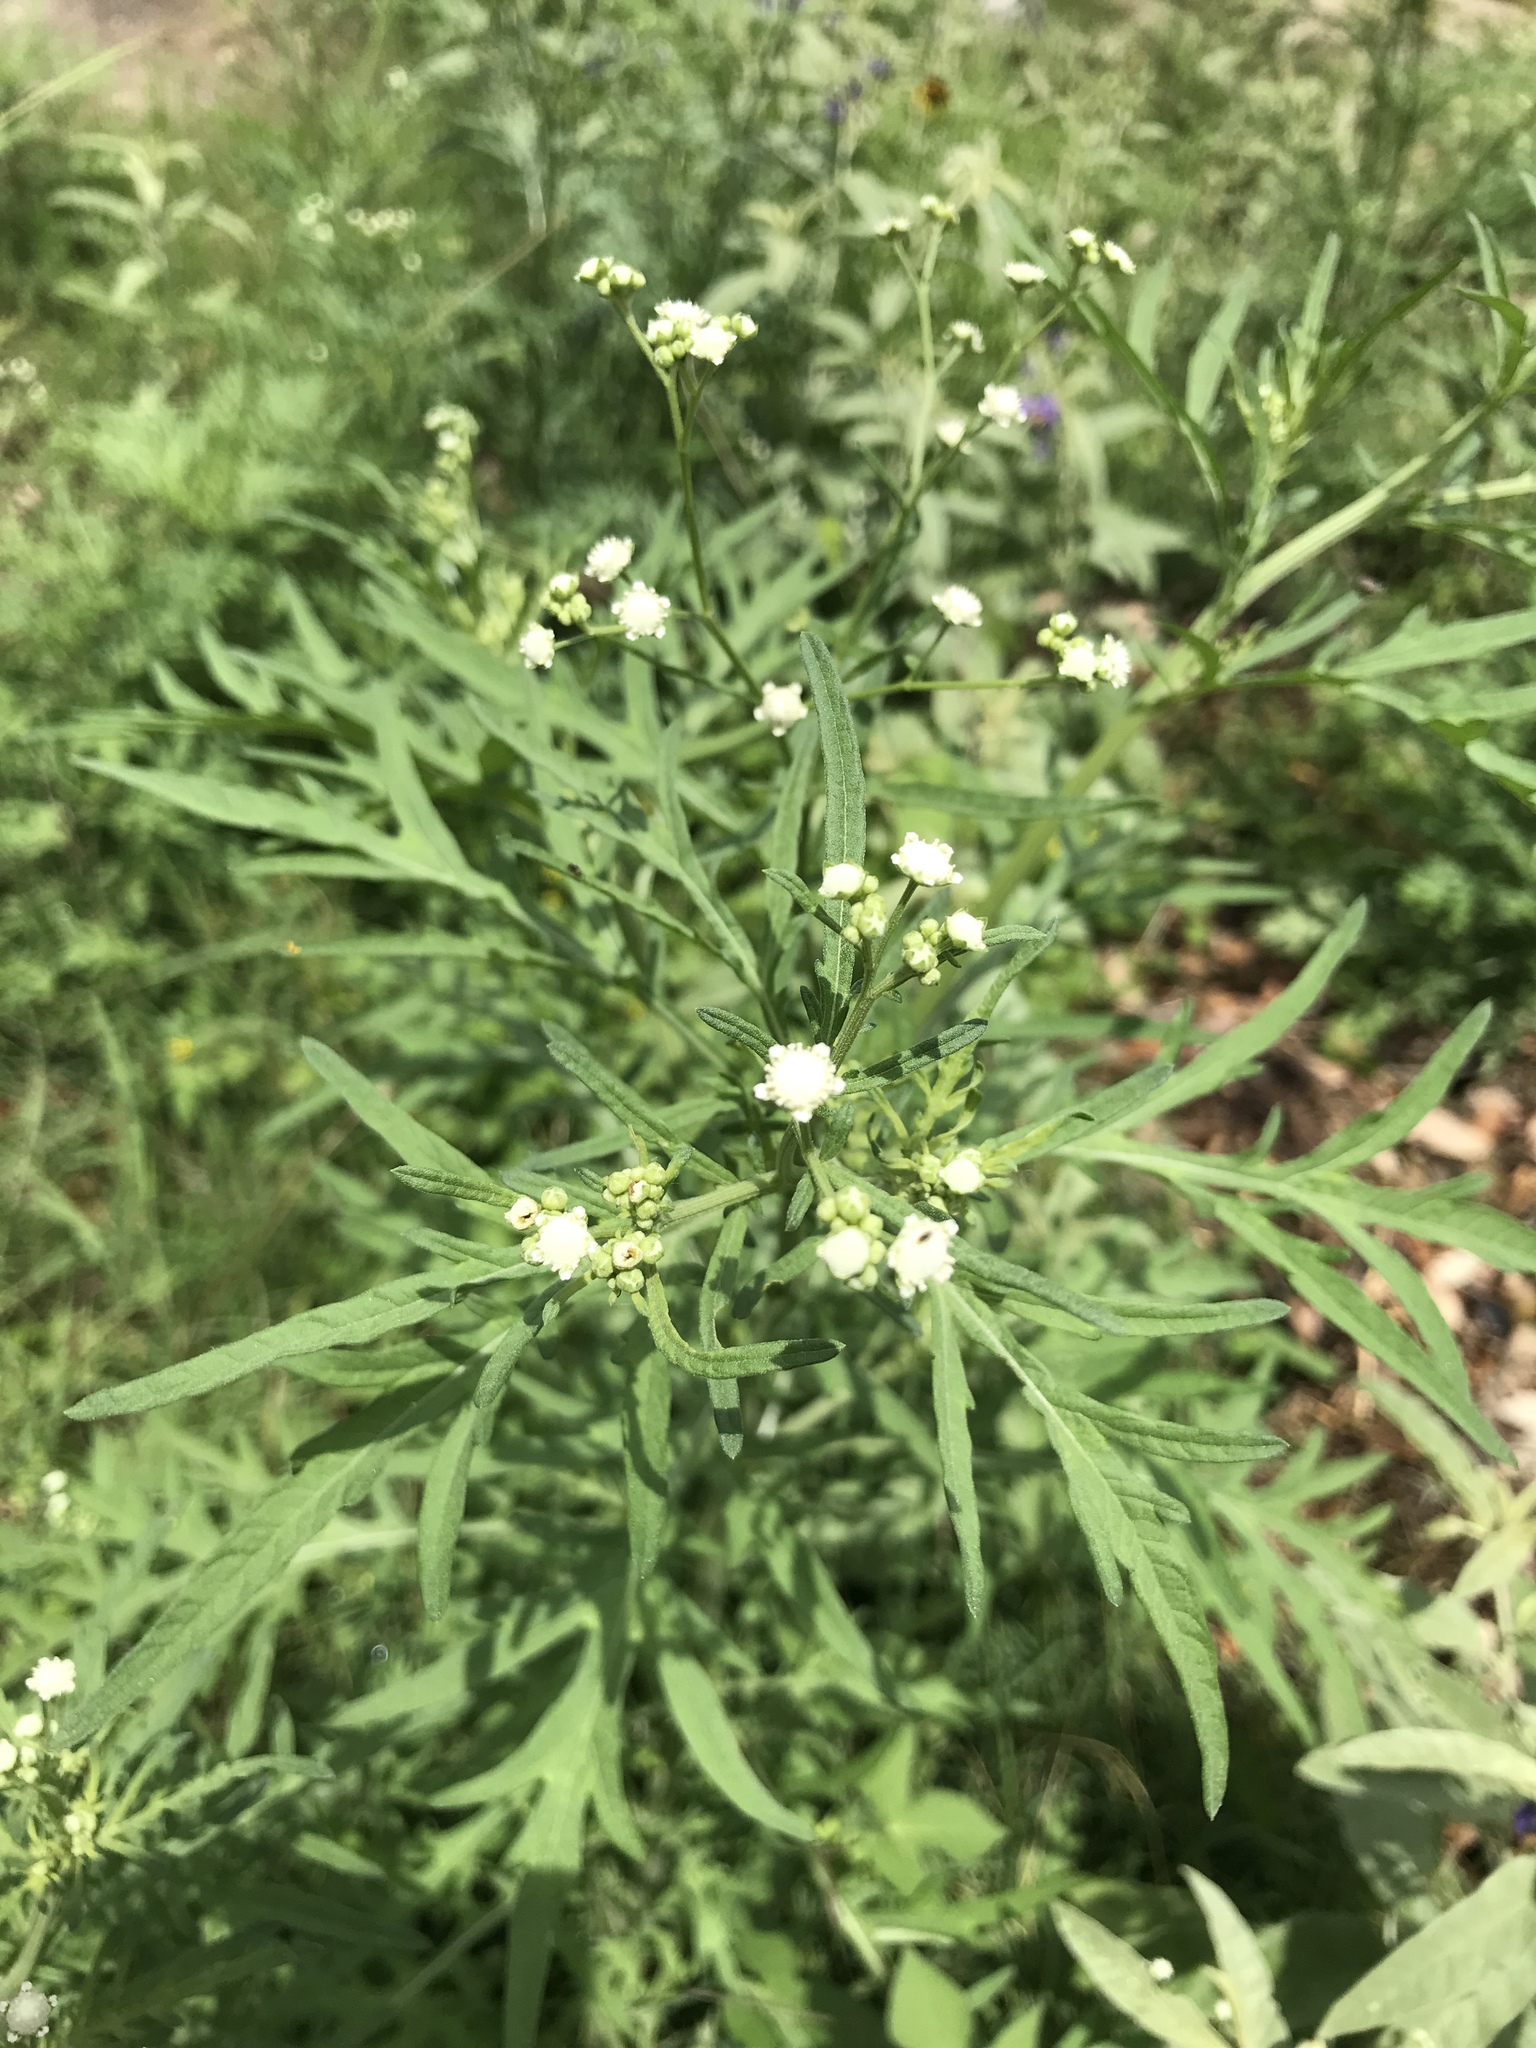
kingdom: Plantae
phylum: Tracheophyta
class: Magnoliopsida
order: Asterales
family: Asteraceae
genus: Parthenium
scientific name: Parthenium hysterophorus
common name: Santa maria feverfew
